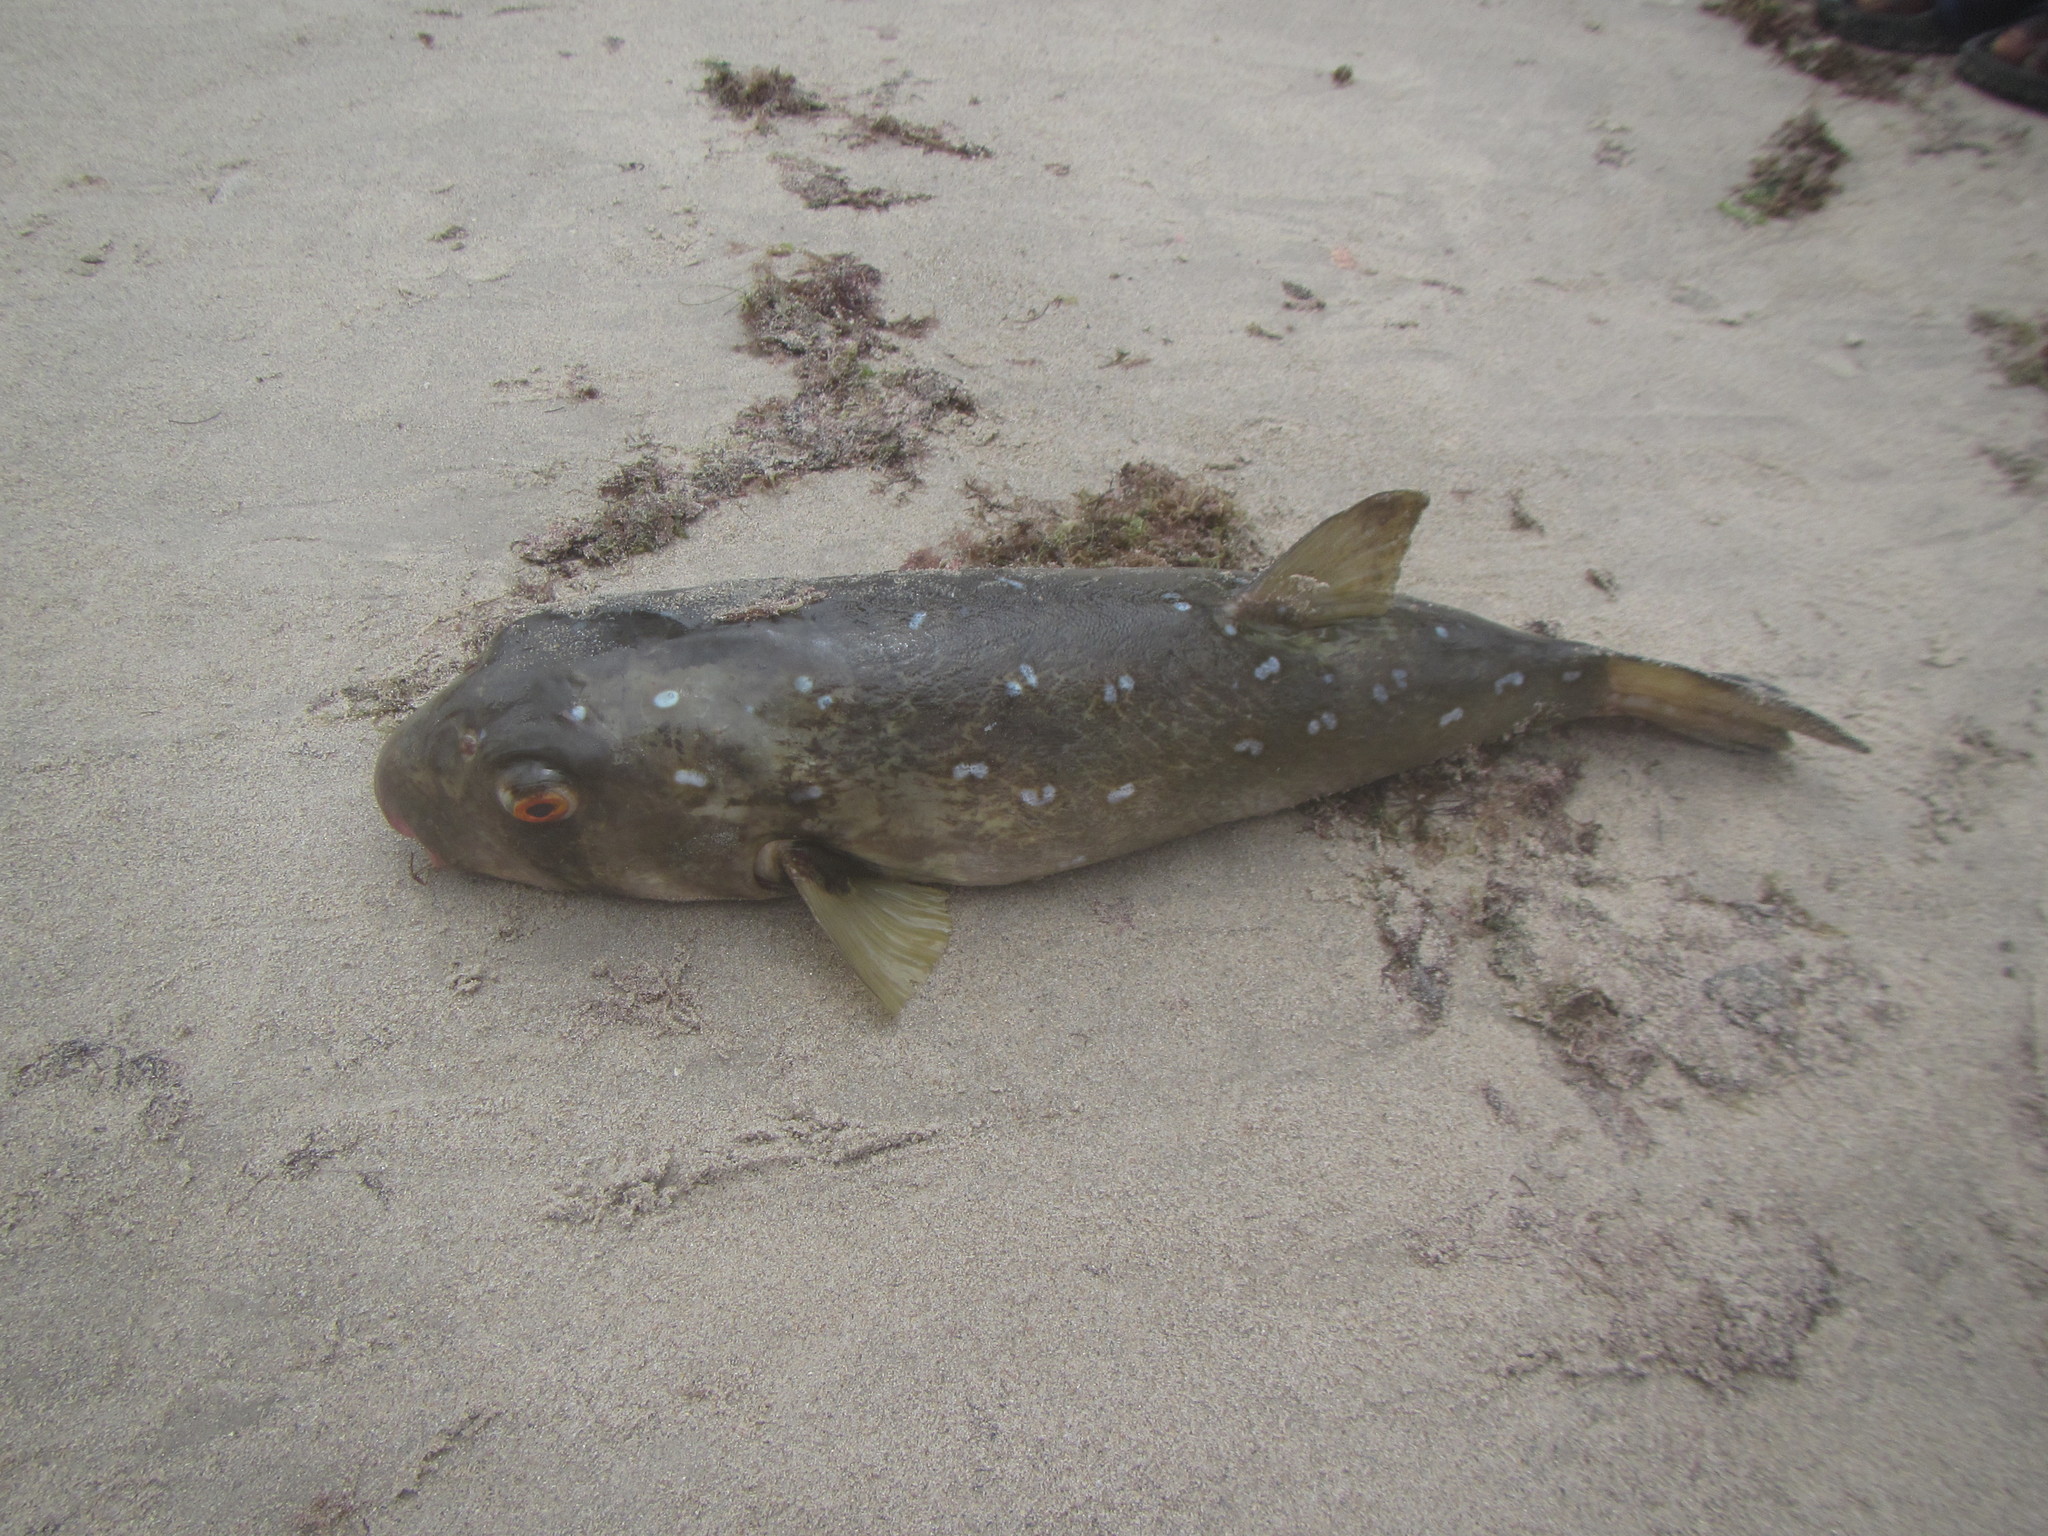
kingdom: Animalia
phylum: Chordata
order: Tetraodontiformes
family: Tetraodontidae
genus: Ephippion
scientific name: Ephippion guttifer
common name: Common puffer
